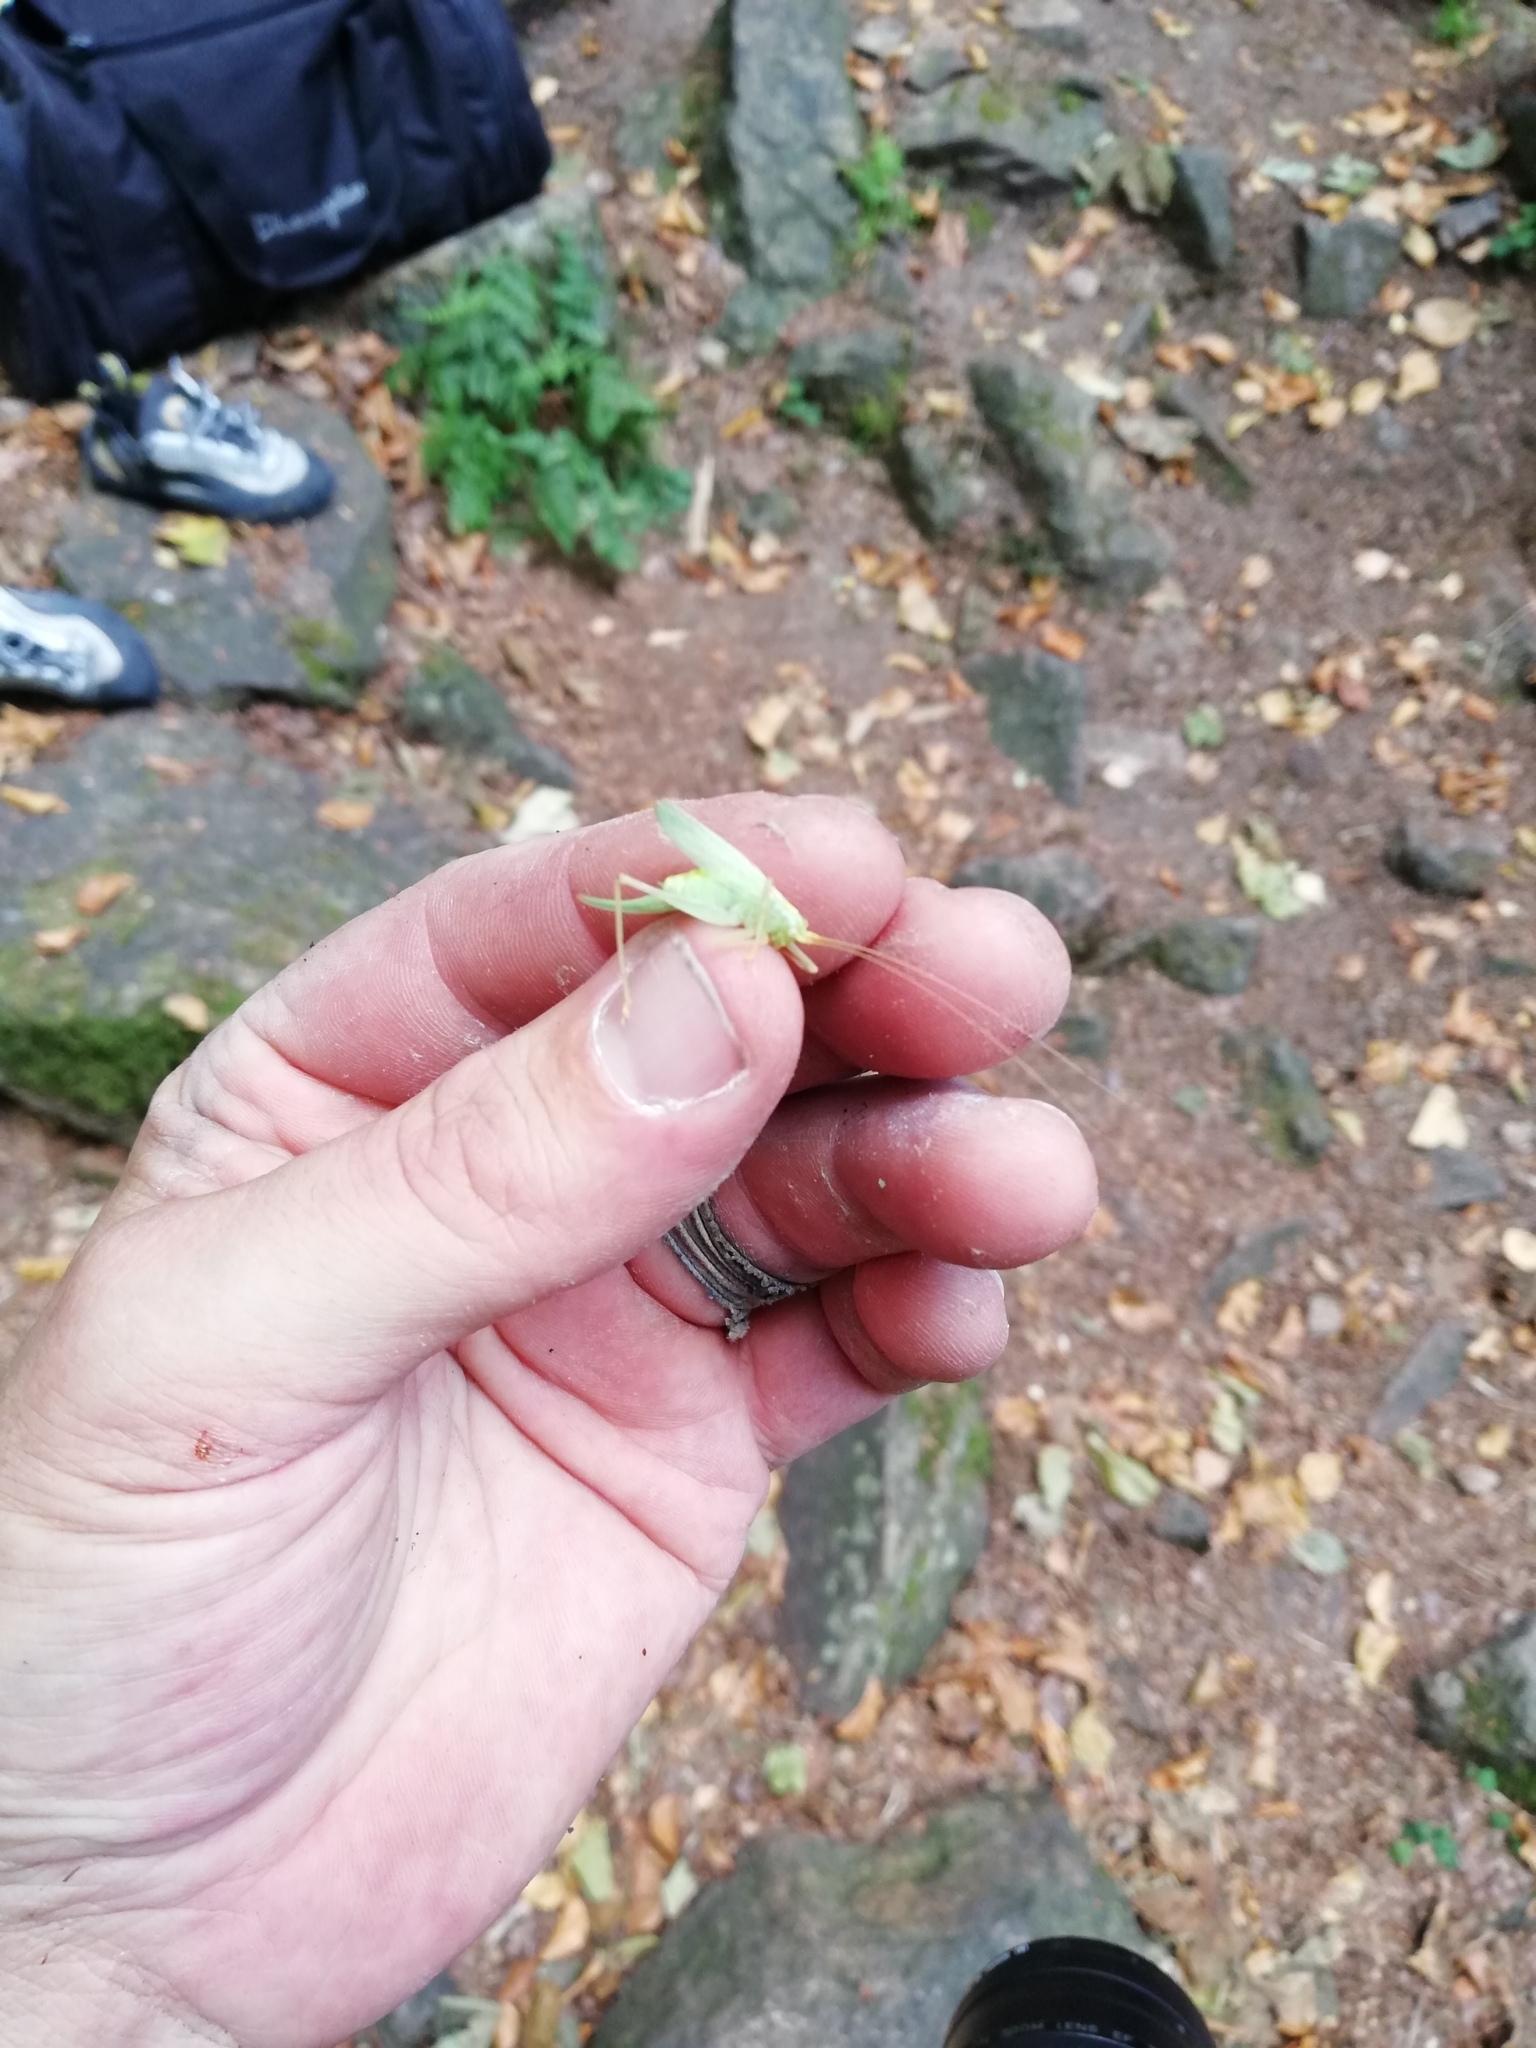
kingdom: Animalia
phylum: Arthropoda
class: Insecta
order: Orthoptera
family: Tettigoniidae
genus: Meconema
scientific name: Meconema thalassinum
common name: Oak bush-cricket
